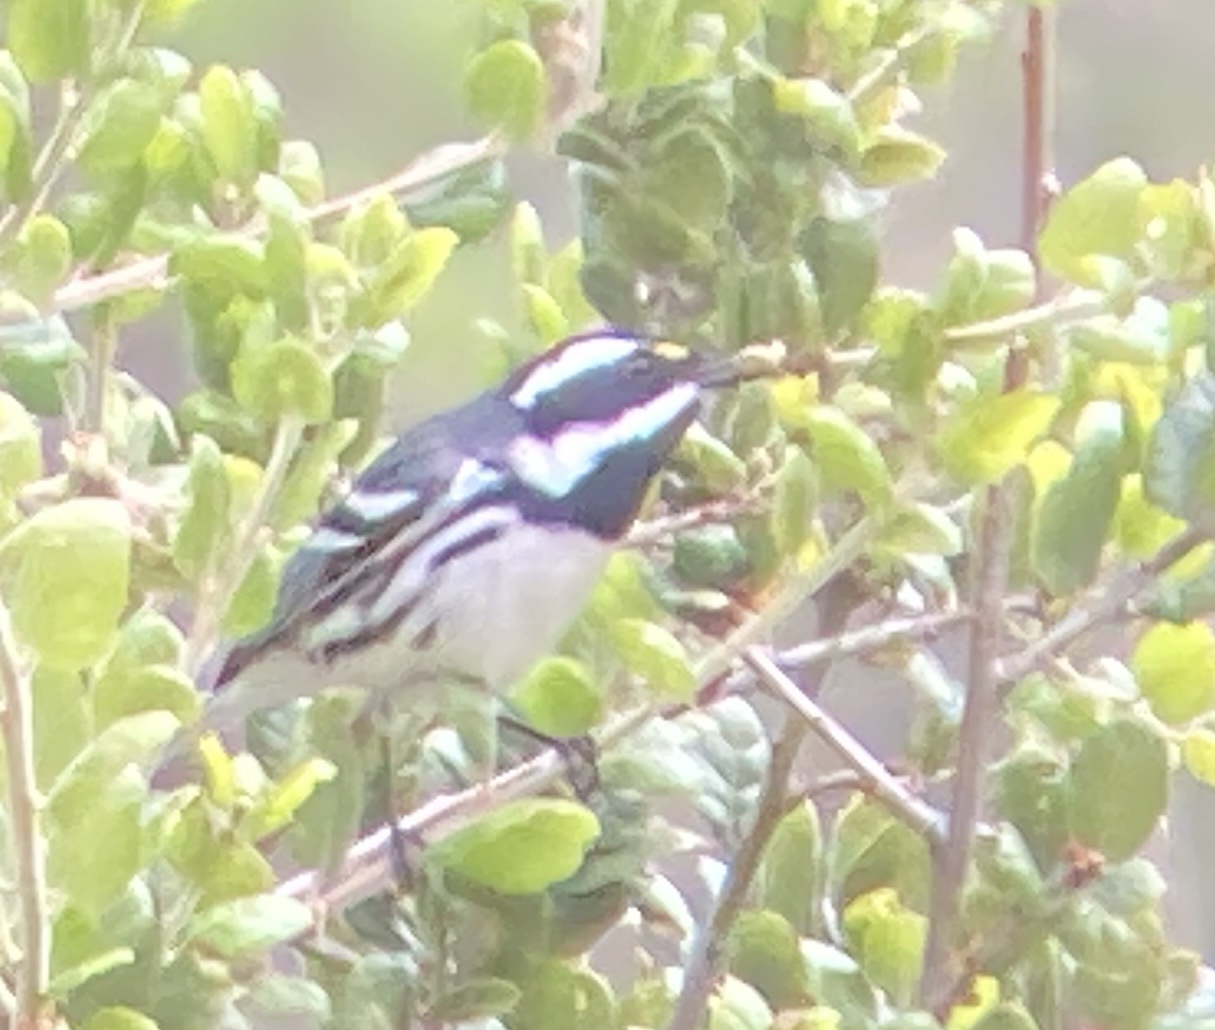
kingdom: Animalia
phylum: Chordata
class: Aves
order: Passeriformes
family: Parulidae
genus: Setophaga
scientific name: Setophaga nigrescens
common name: Black-throated gray warbler
